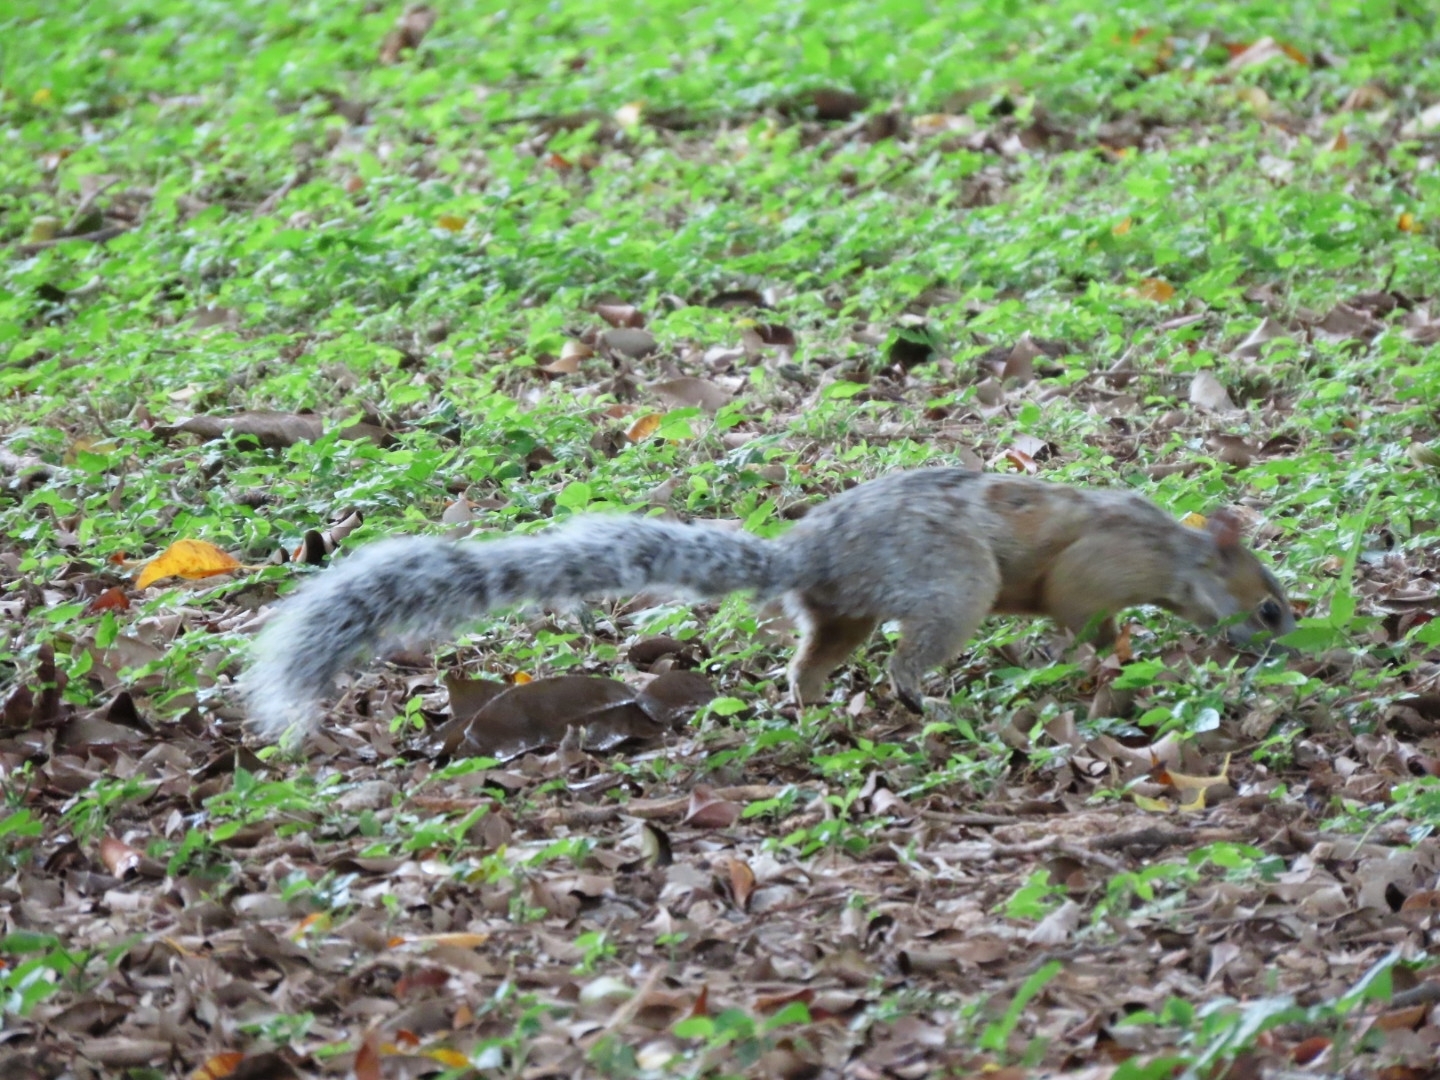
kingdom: Animalia
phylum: Chordata
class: Mammalia
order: Rodentia
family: Sciuridae
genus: Sciurus
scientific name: Sciurus aureogaster
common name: Red-bellied squirrel
